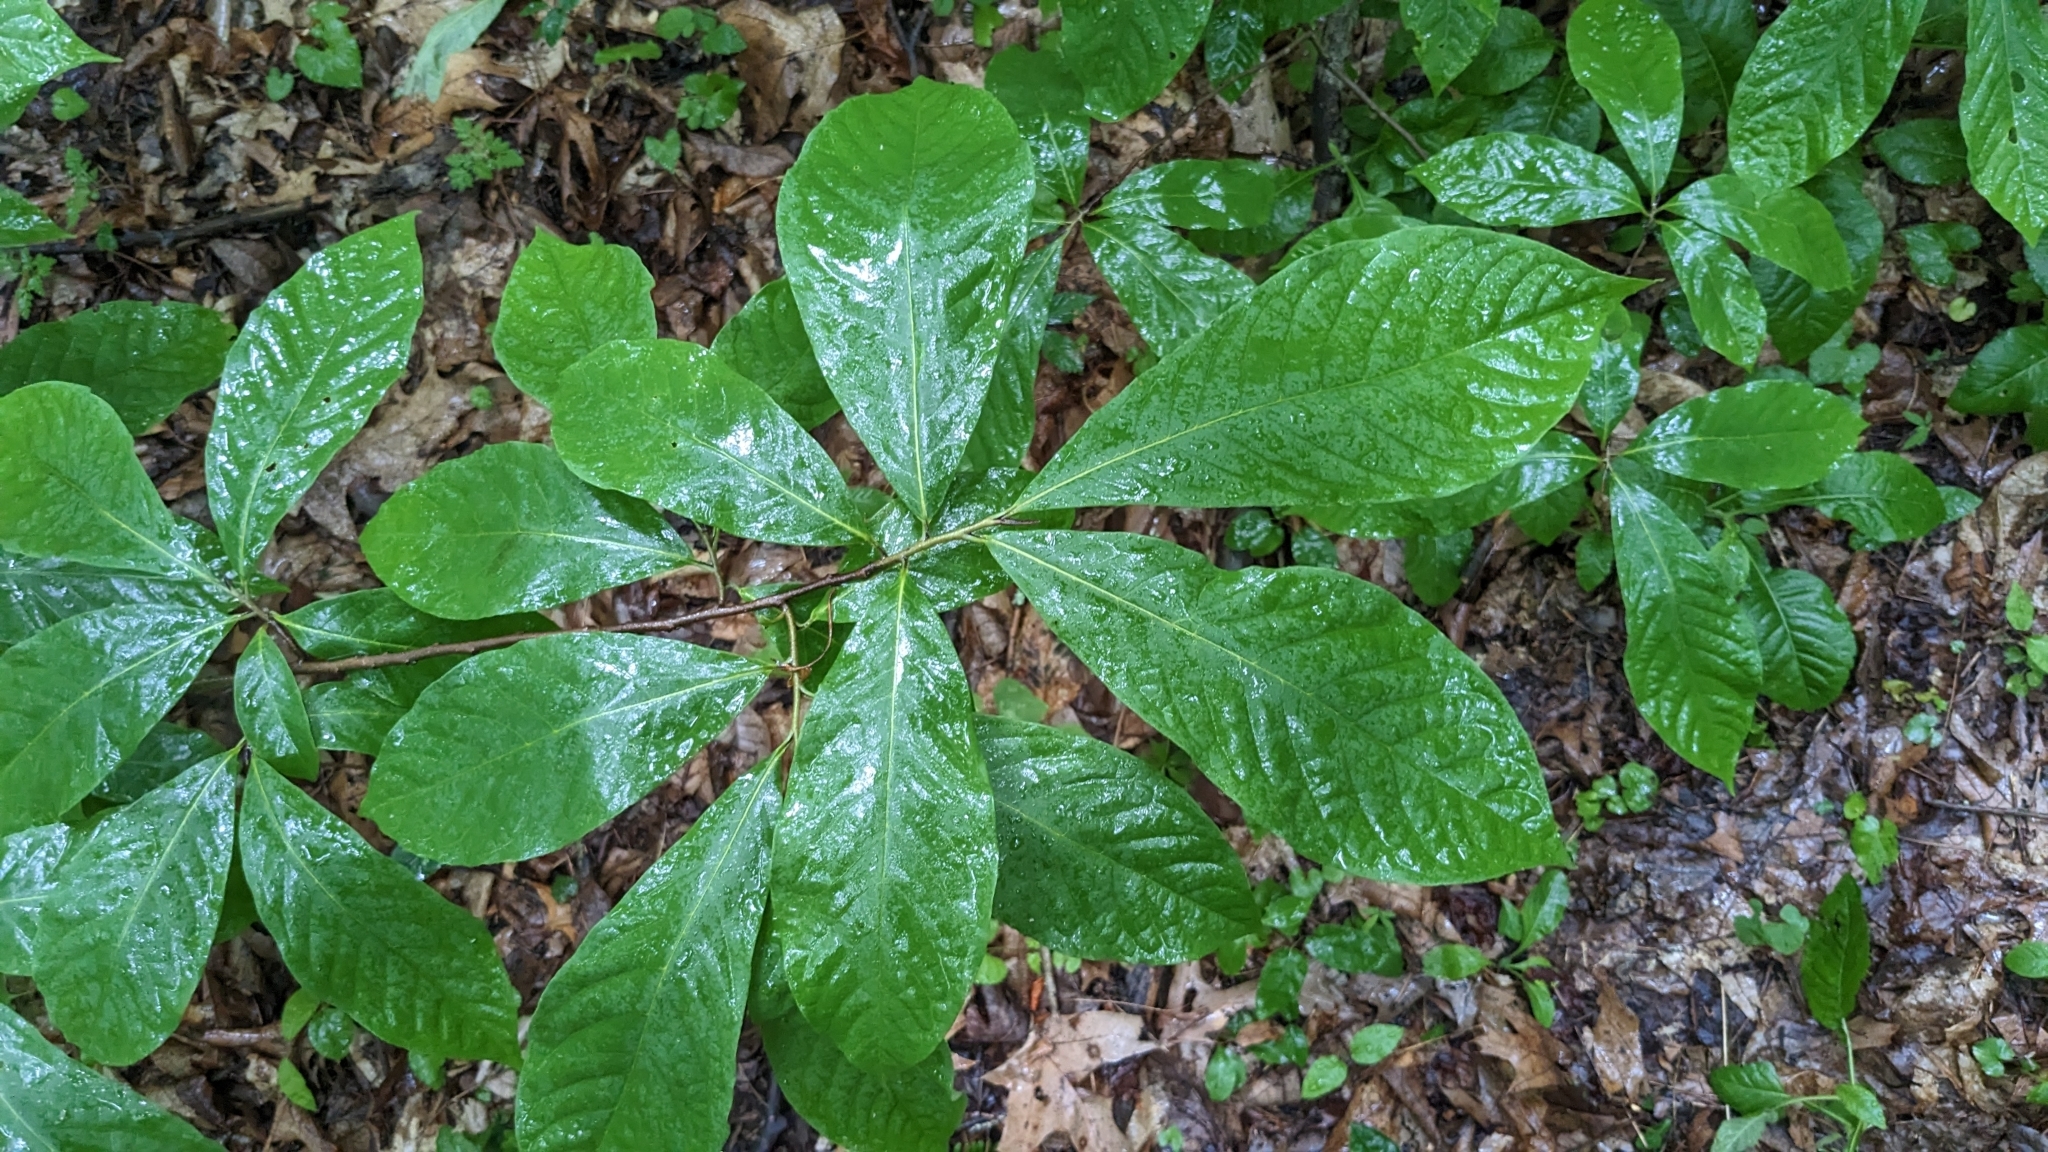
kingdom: Plantae
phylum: Tracheophyta
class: Magnoliopsida
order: Magnoliales
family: Annonaceae
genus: Asimina
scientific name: Asimina triloba
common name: Dog-banana
